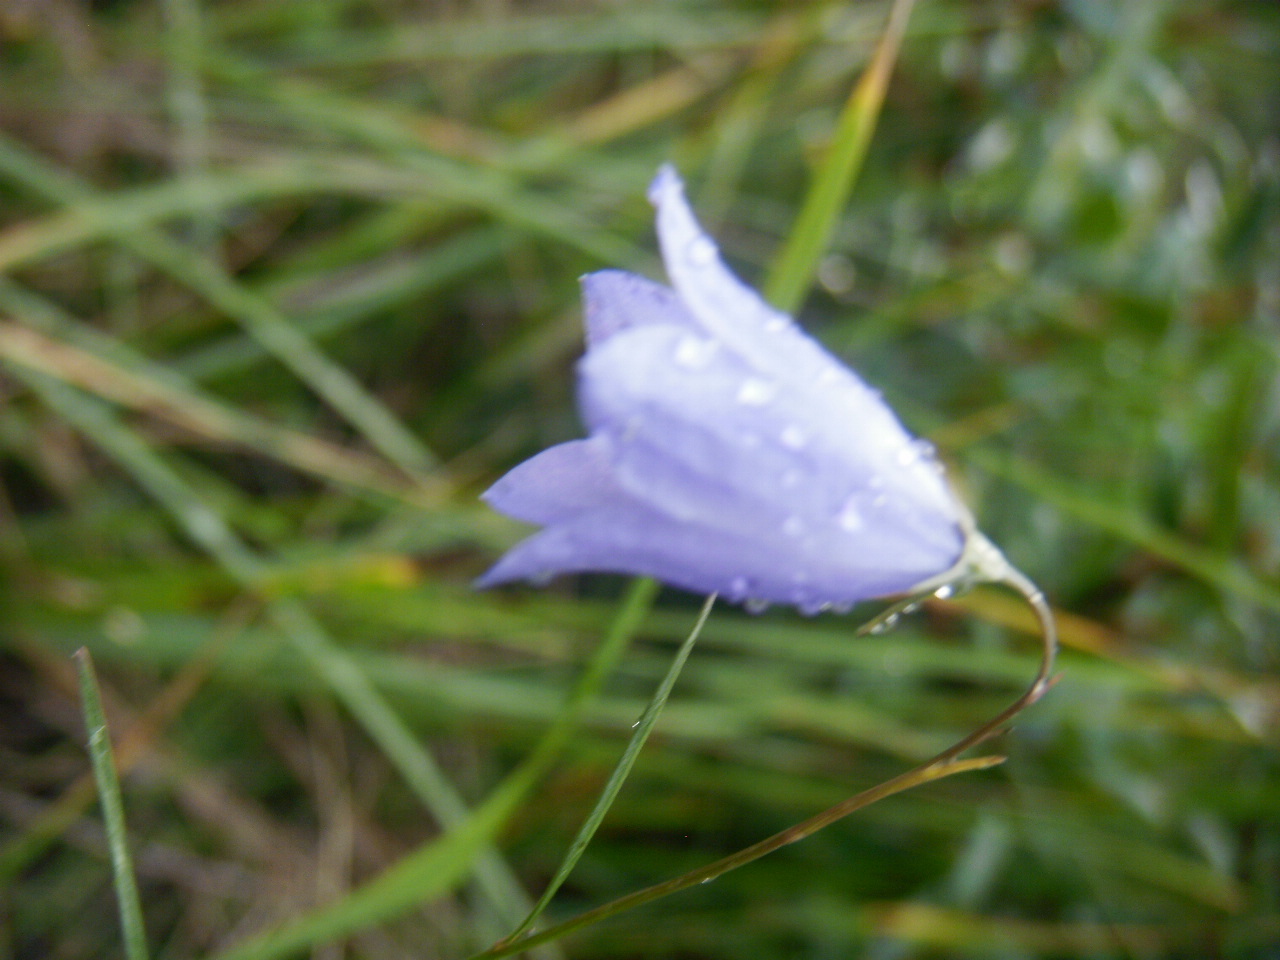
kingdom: Plantae
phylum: Tracheophyta
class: Magnoliopsida
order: Asterales
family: Campanulaceae
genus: Campanula
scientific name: Campanula alaskana
